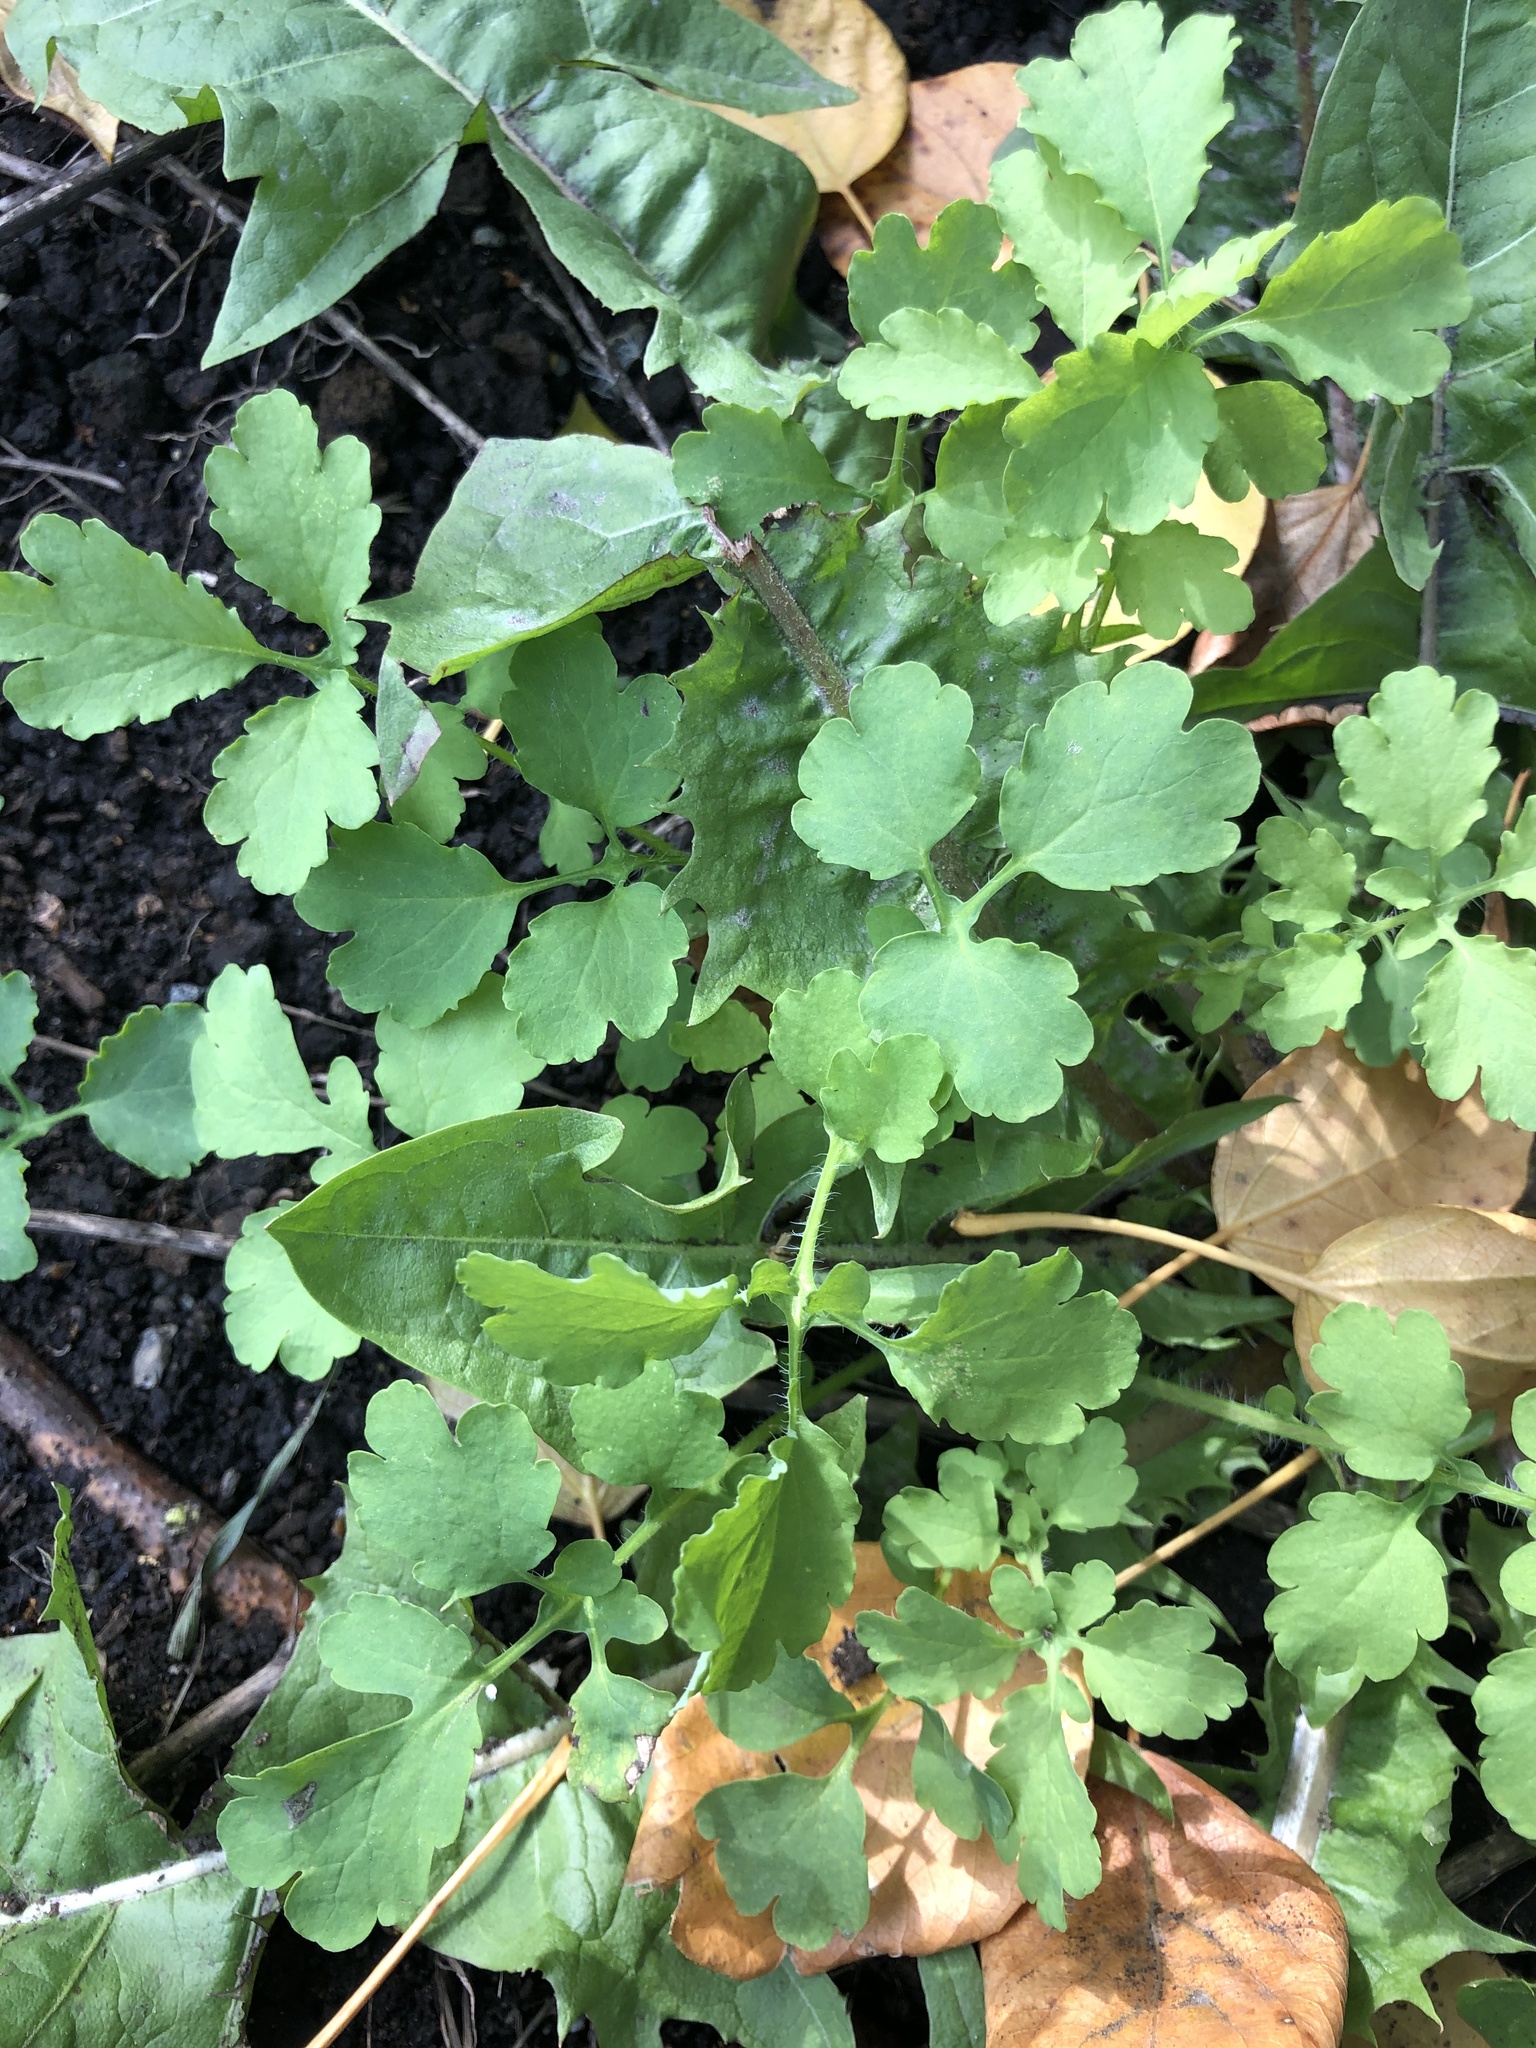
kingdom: Plantae
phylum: Tracheophyta
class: Magnoliopsida
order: Ranunculales
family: Papaveraceae
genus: Chelidonium
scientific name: Chelidonium majus
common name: Greater celandine
